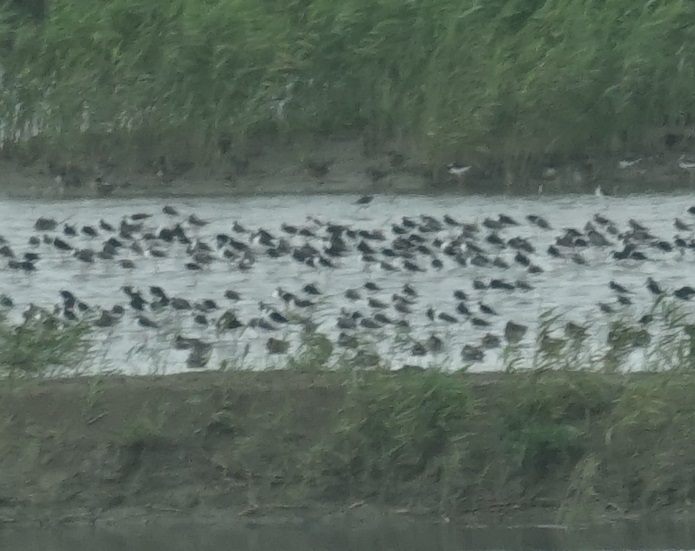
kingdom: Animalia
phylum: Chordata
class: Aves
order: Charadriiformes
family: Recurvirostridae
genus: Himantopus
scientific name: Himantopus himantopus
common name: Black-winged stilt
